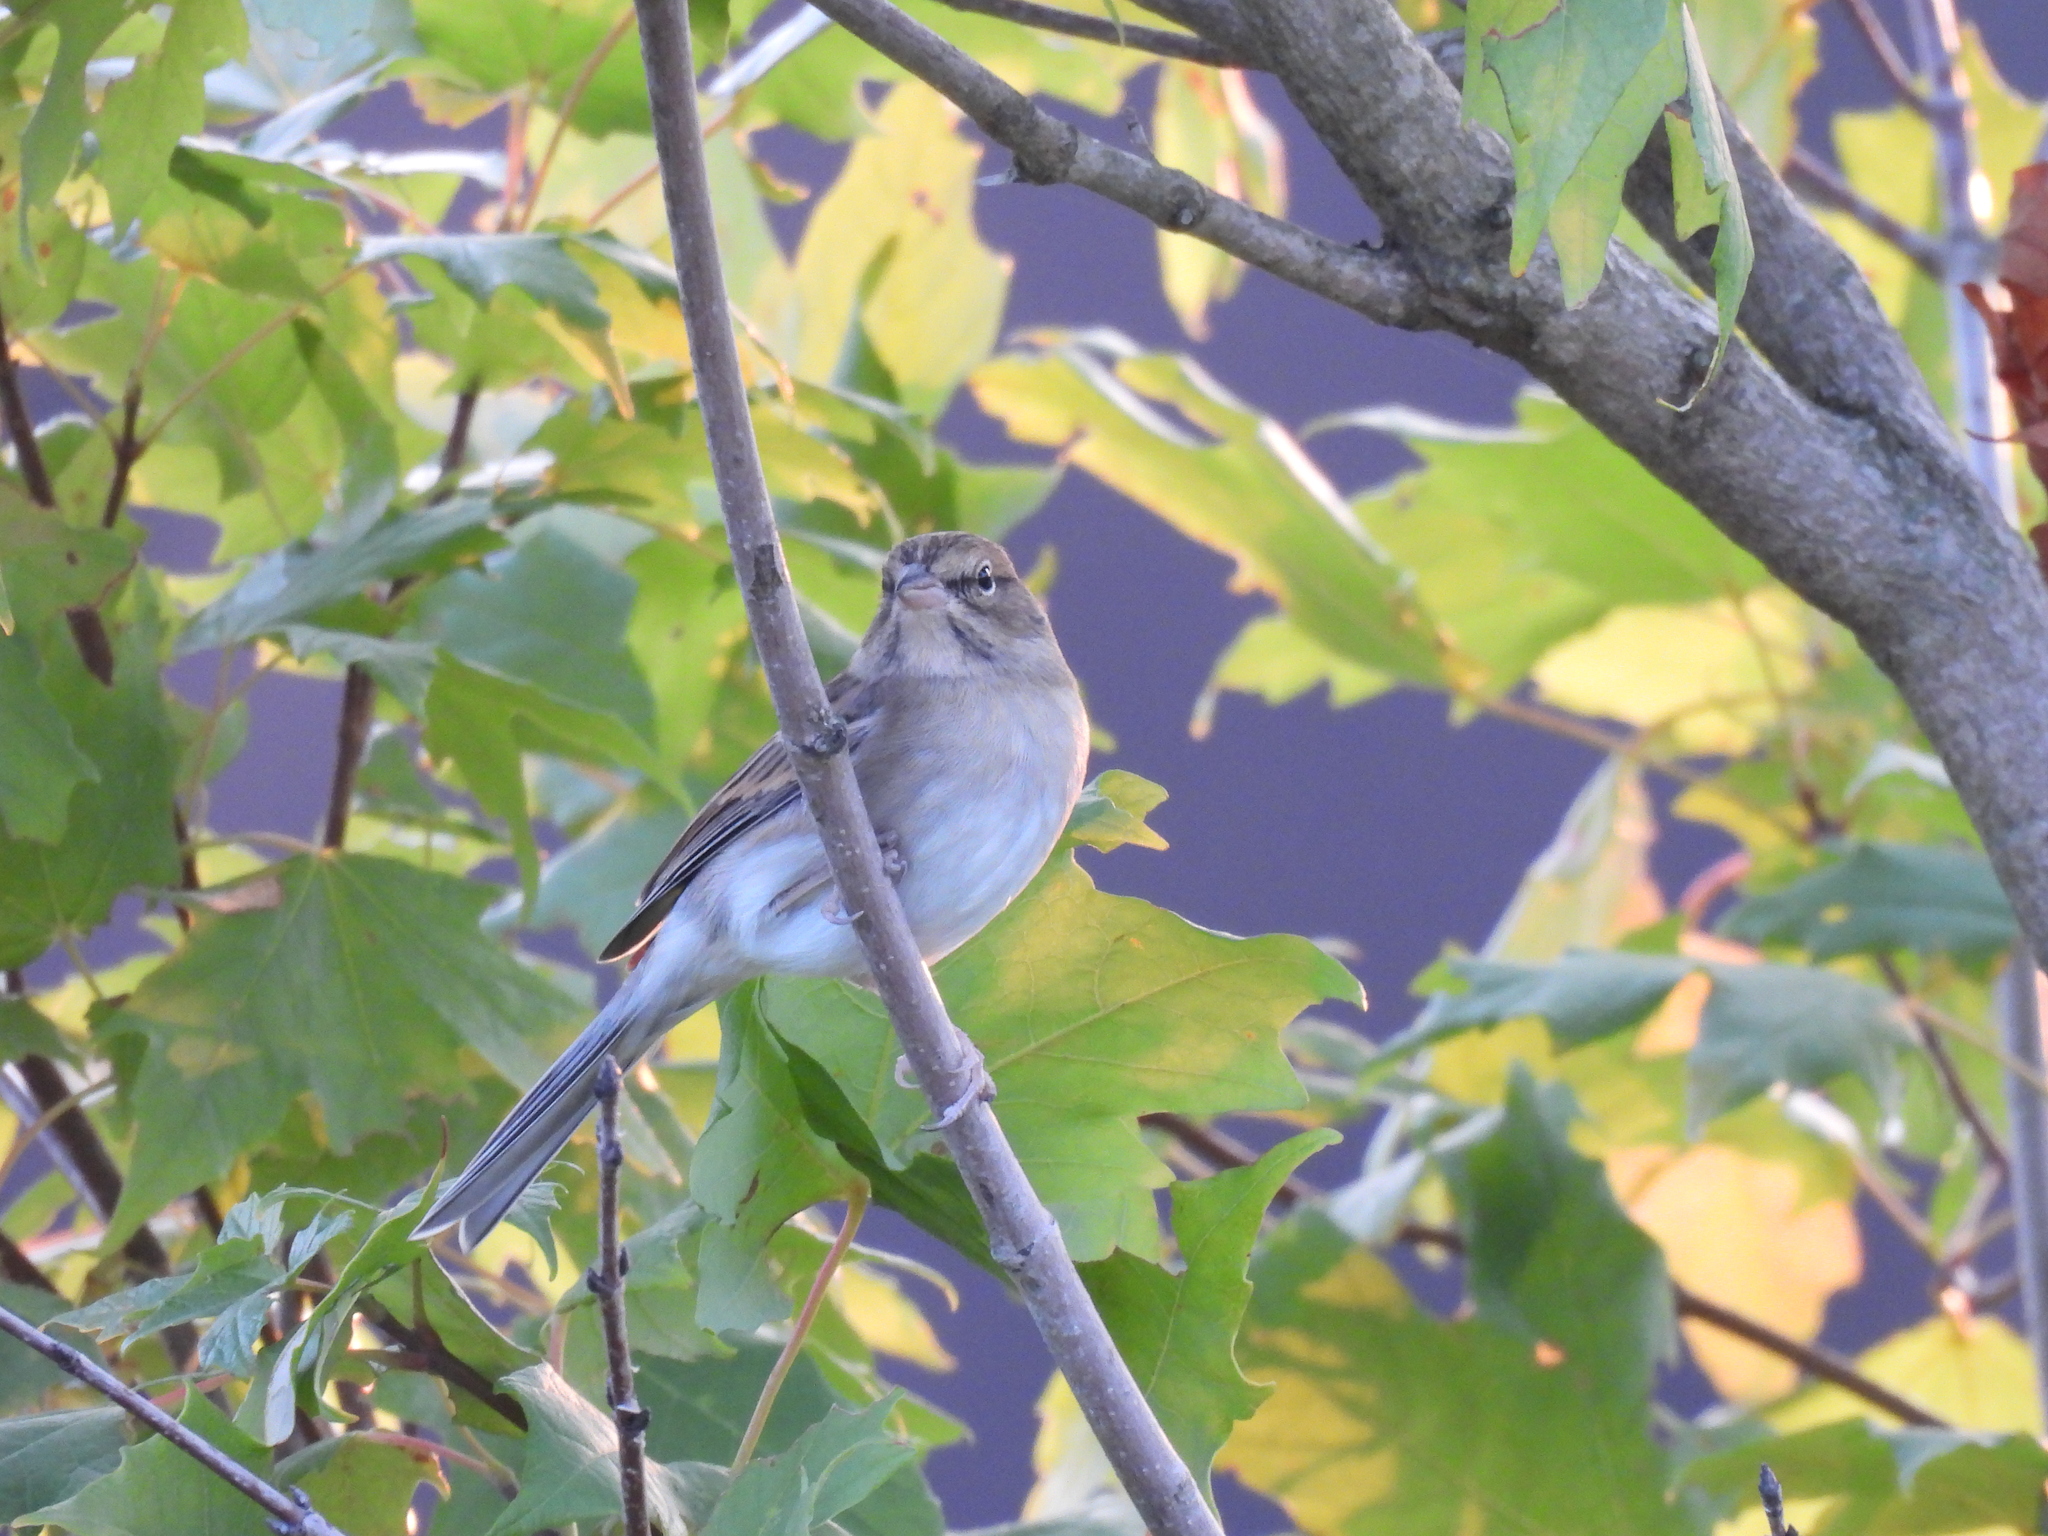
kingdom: Animalia
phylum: Chordata
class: Aves
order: Passeriformes
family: Passerellidae
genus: Spizella
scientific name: Spizella passerina
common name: Chipping sparrow
